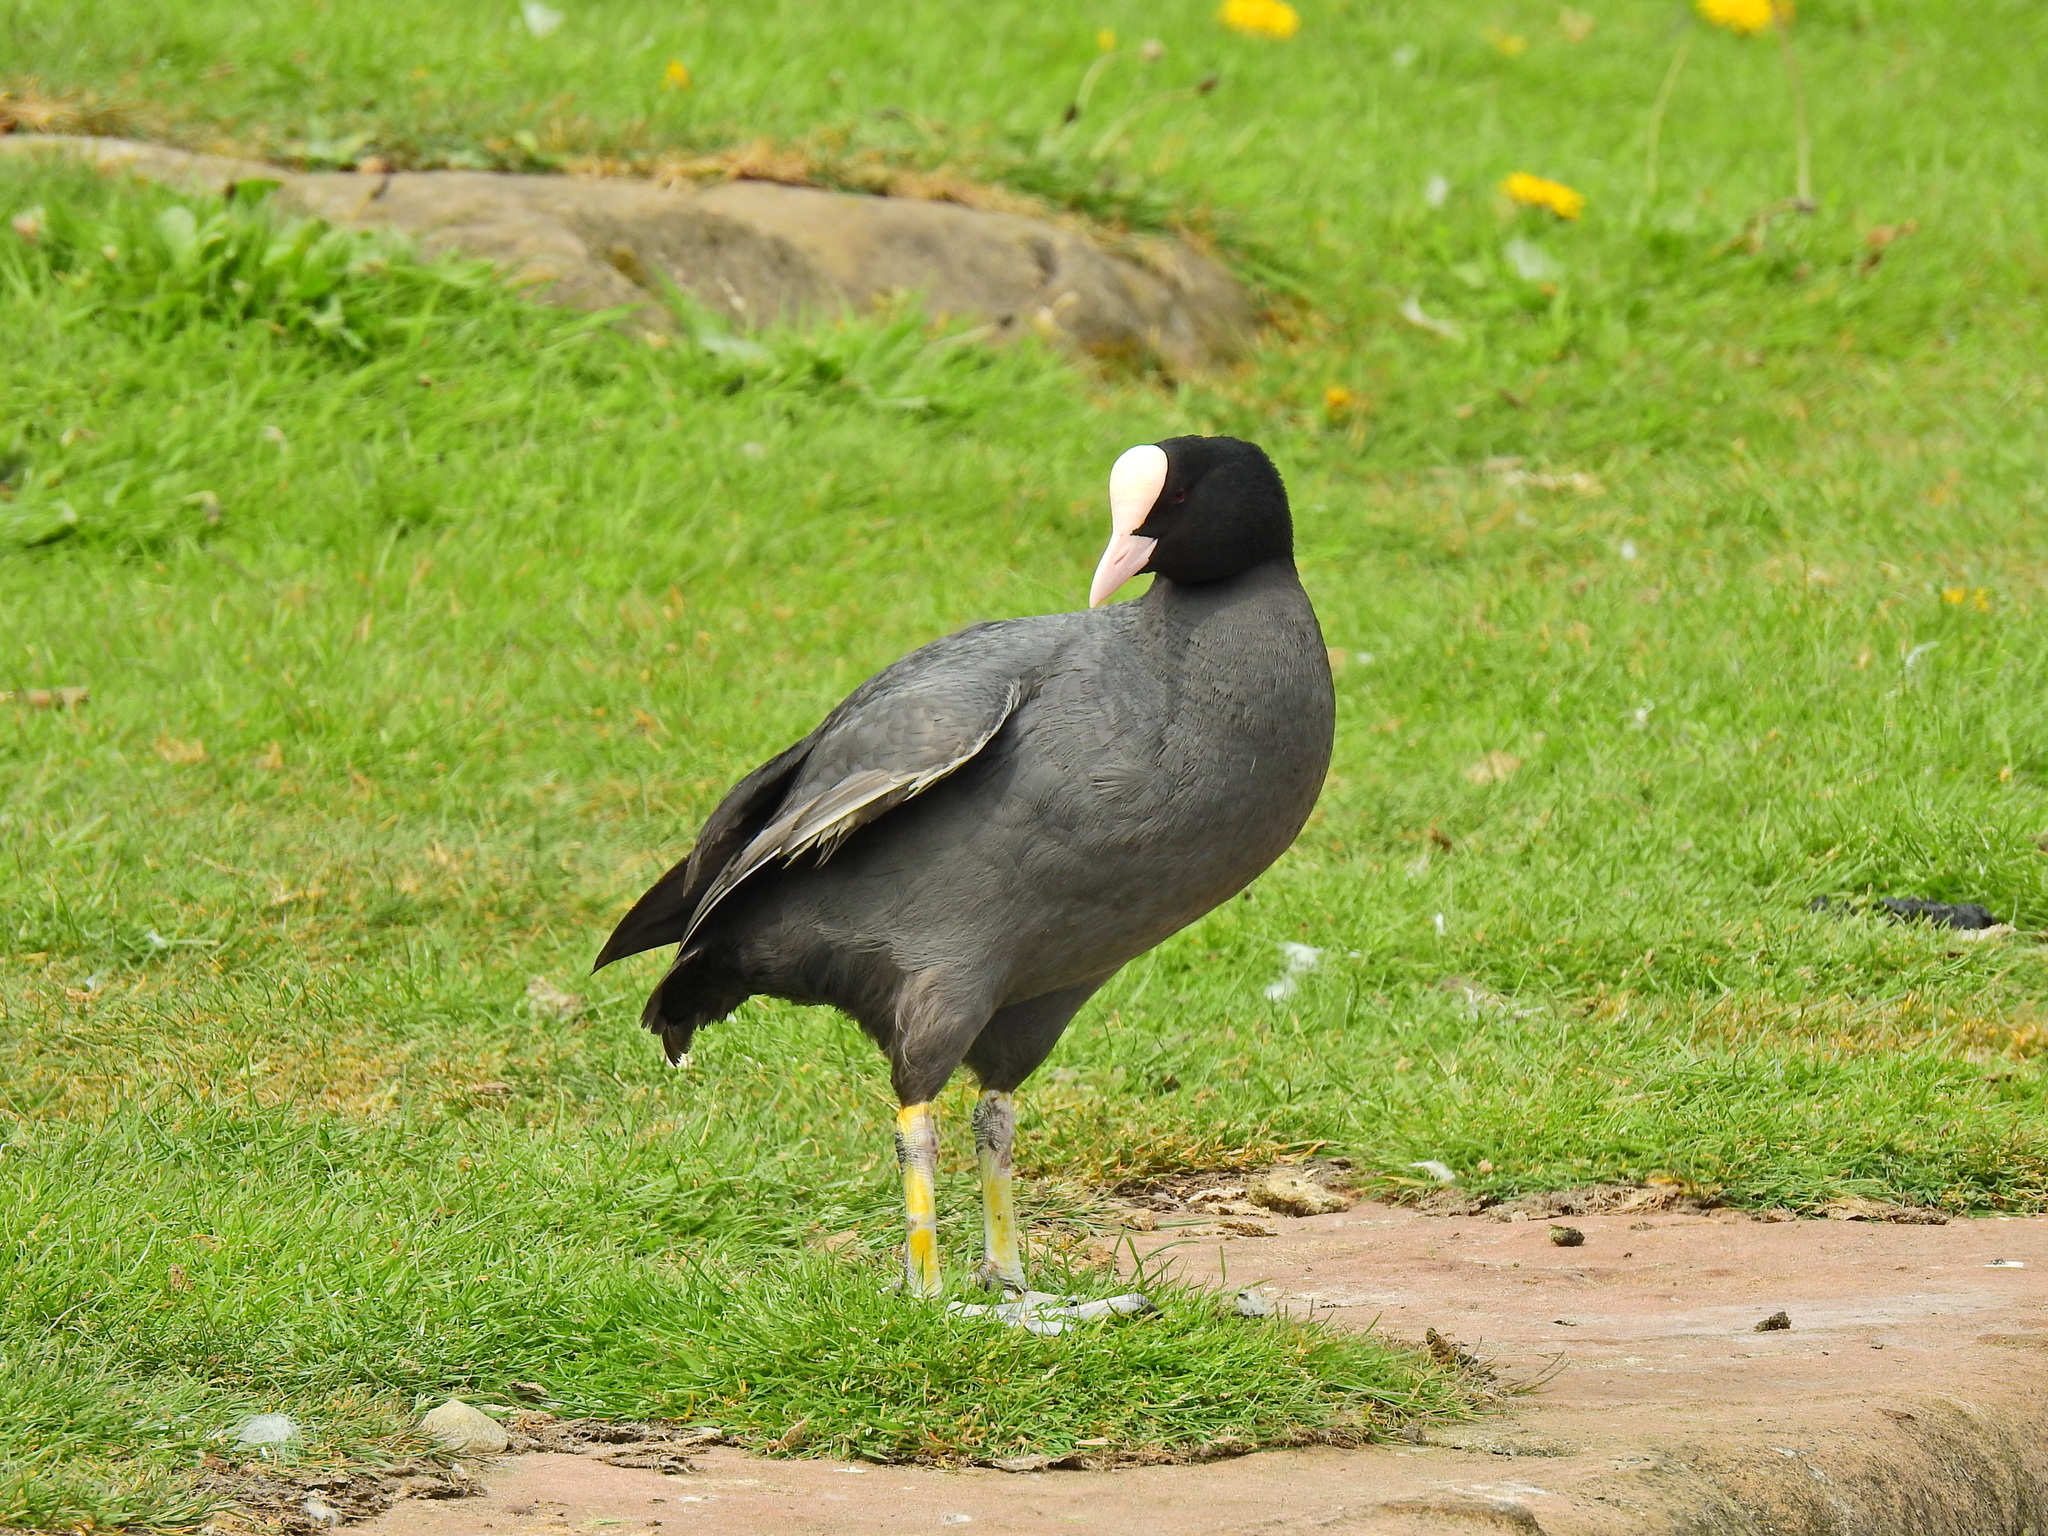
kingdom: Animalia
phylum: Chordata
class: Aves
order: Gruiformes
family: Rallidae
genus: Fulica
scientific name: Fulica atra
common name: Eurasian coot
